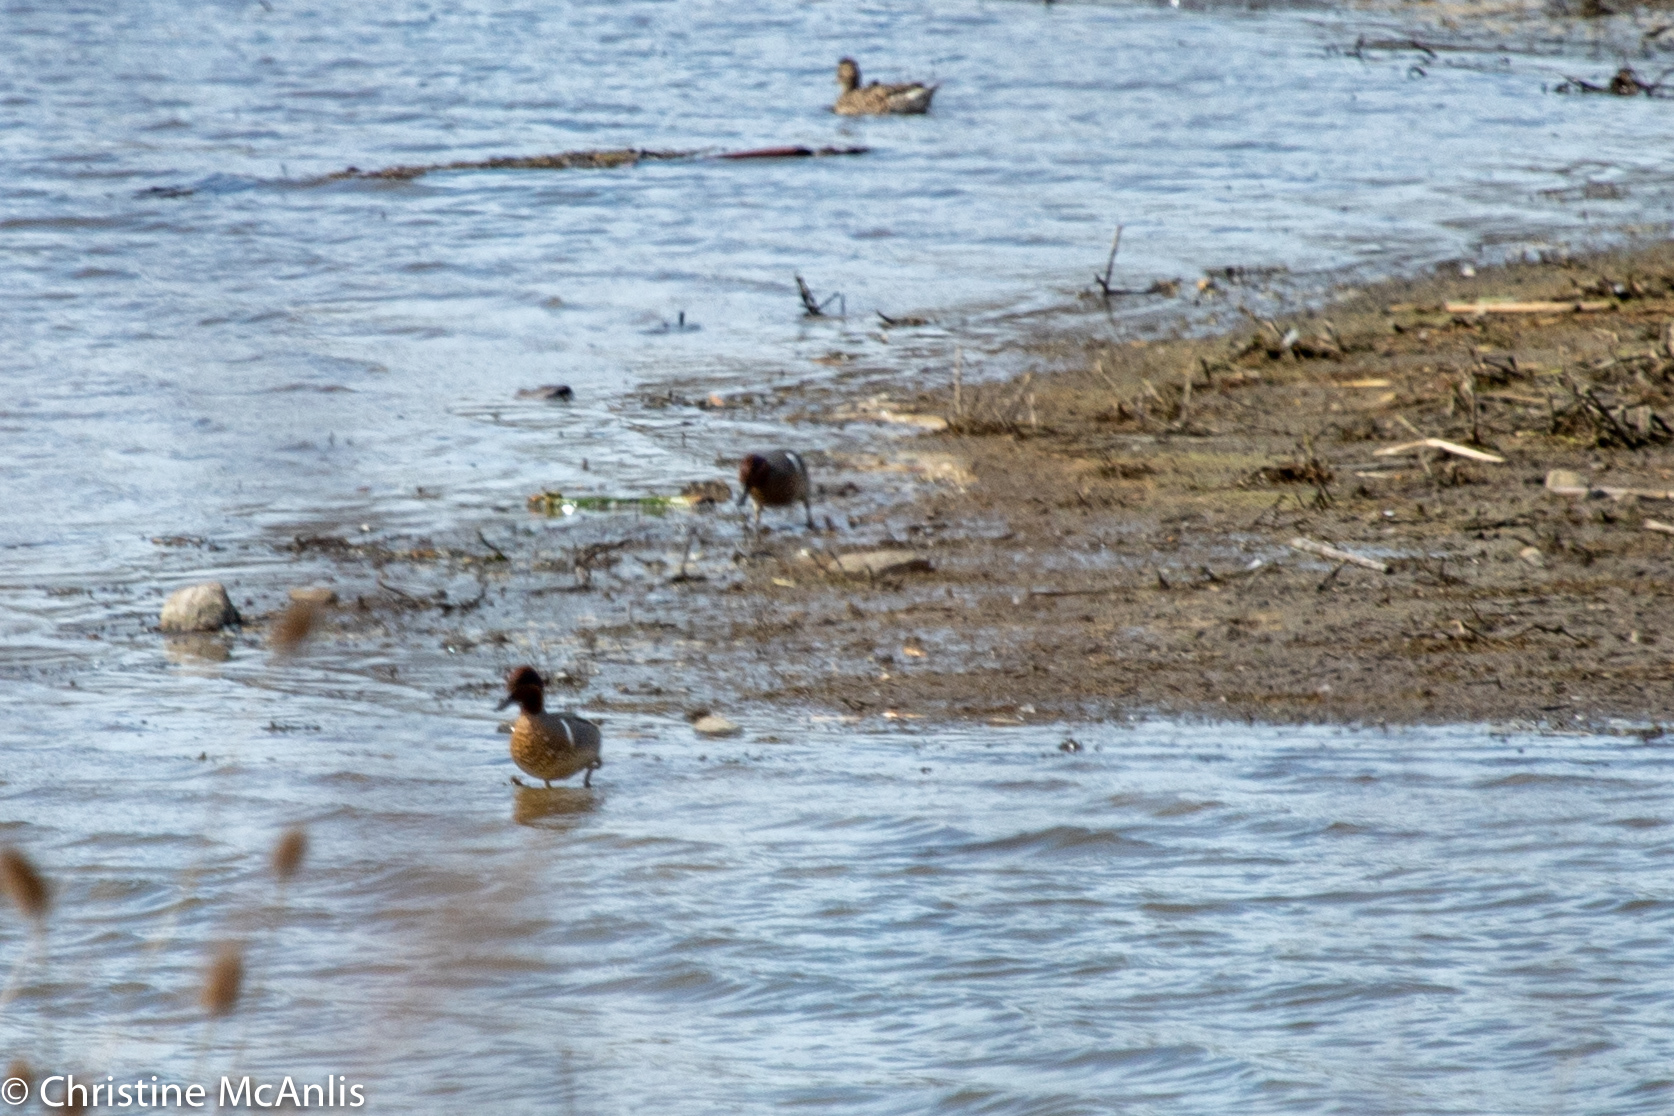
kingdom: Animalia
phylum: Chordata
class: Aves
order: Anseriformes
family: Anatidae
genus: Anas
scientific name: Anas crecca
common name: Eurasian teal
